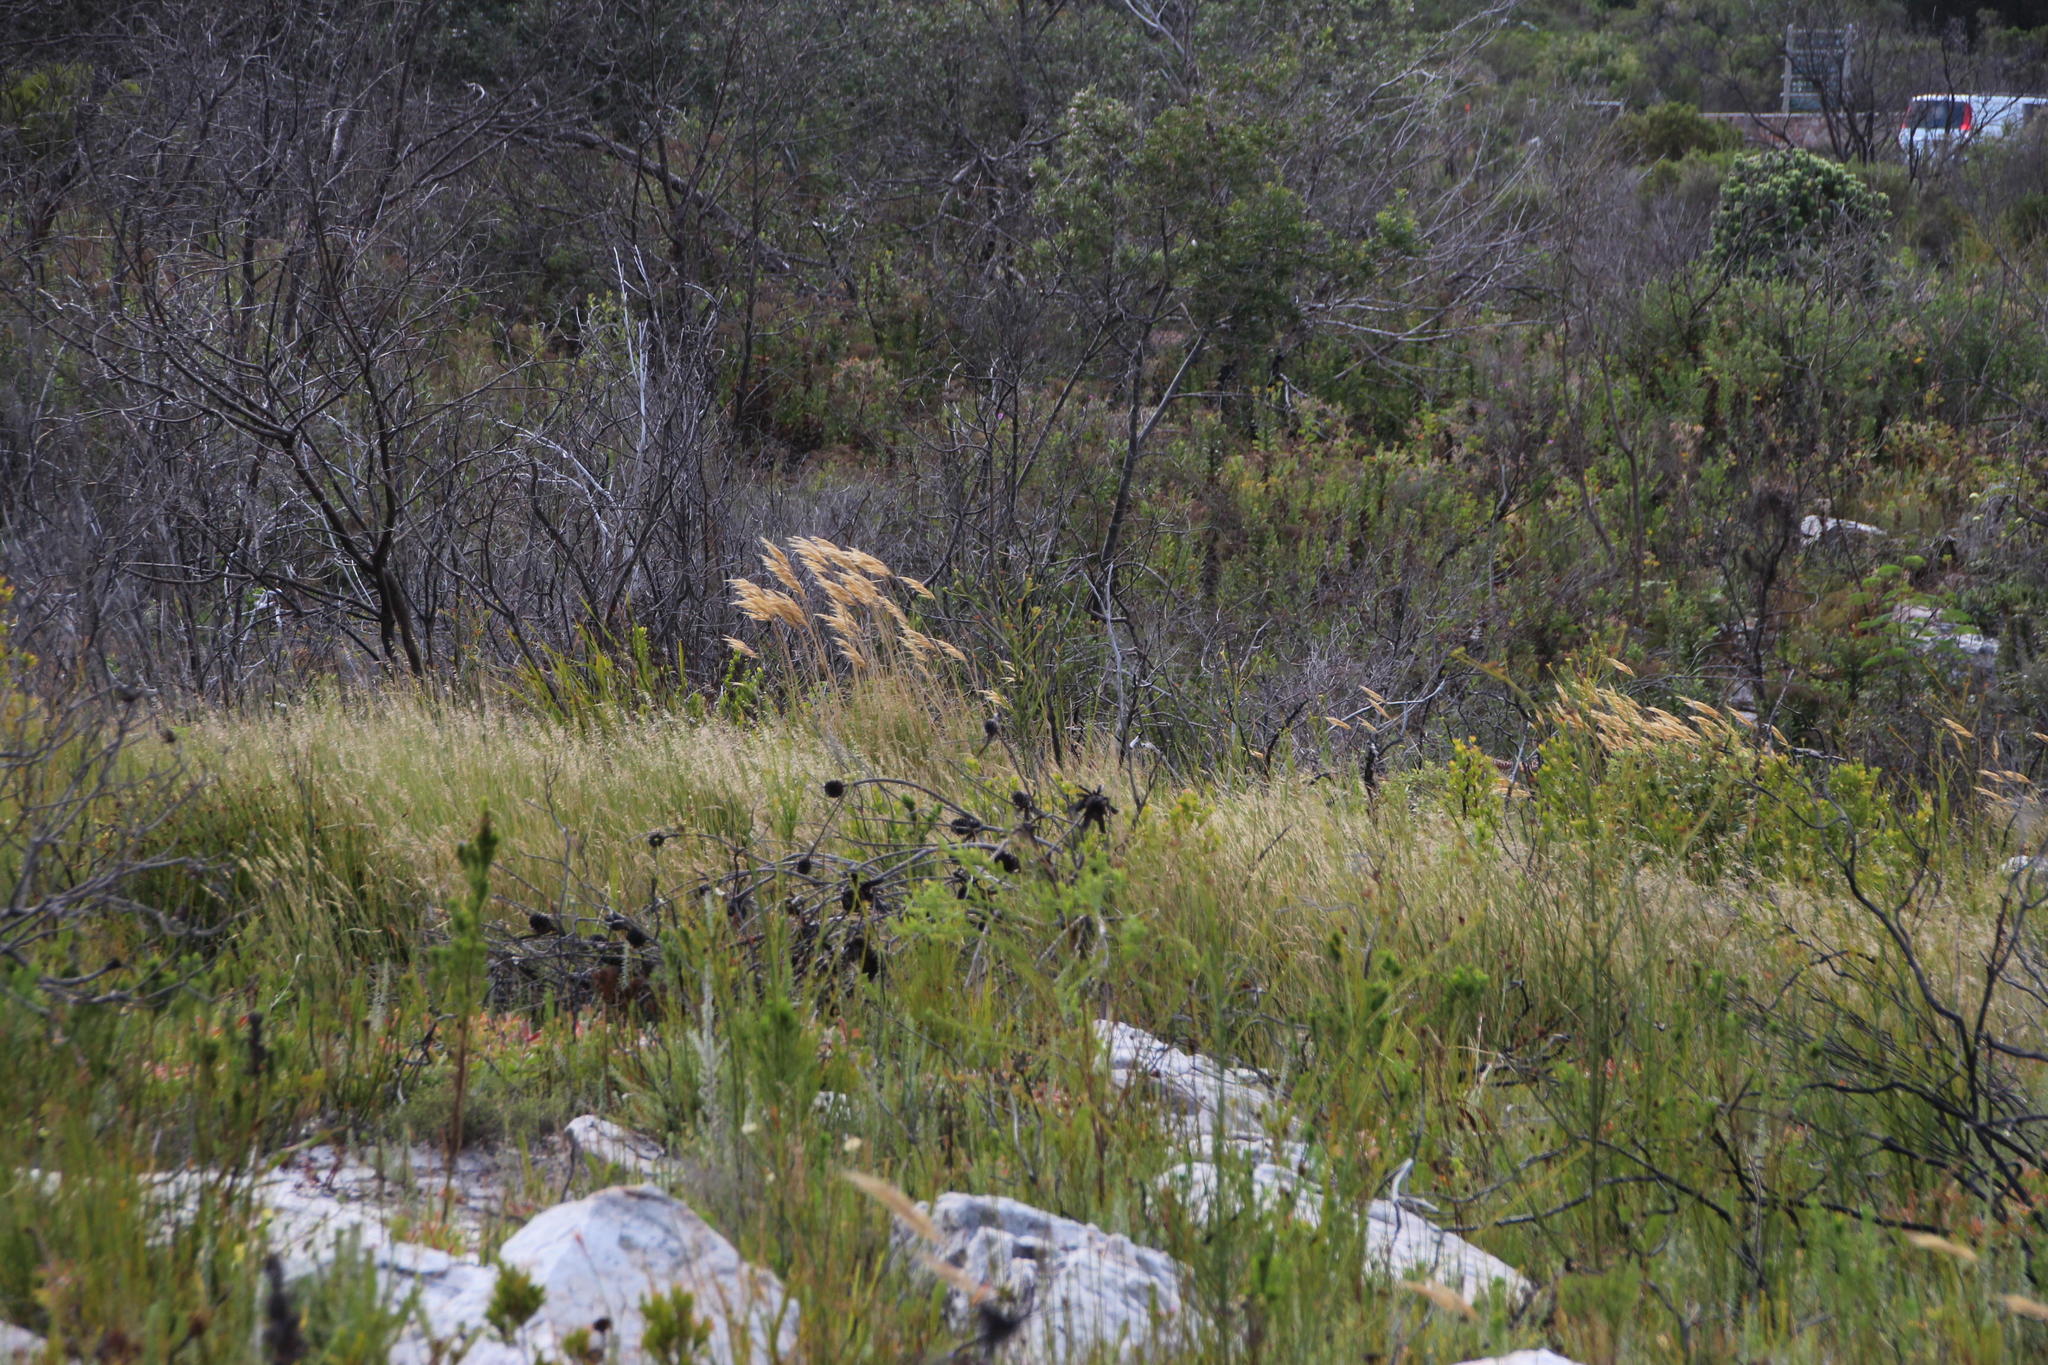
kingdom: Plantae
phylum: Tracheophyta
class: Liliopsida
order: Poales
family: Poaceae
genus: Pseudopentameris
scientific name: Pseudopentameris macrantha
